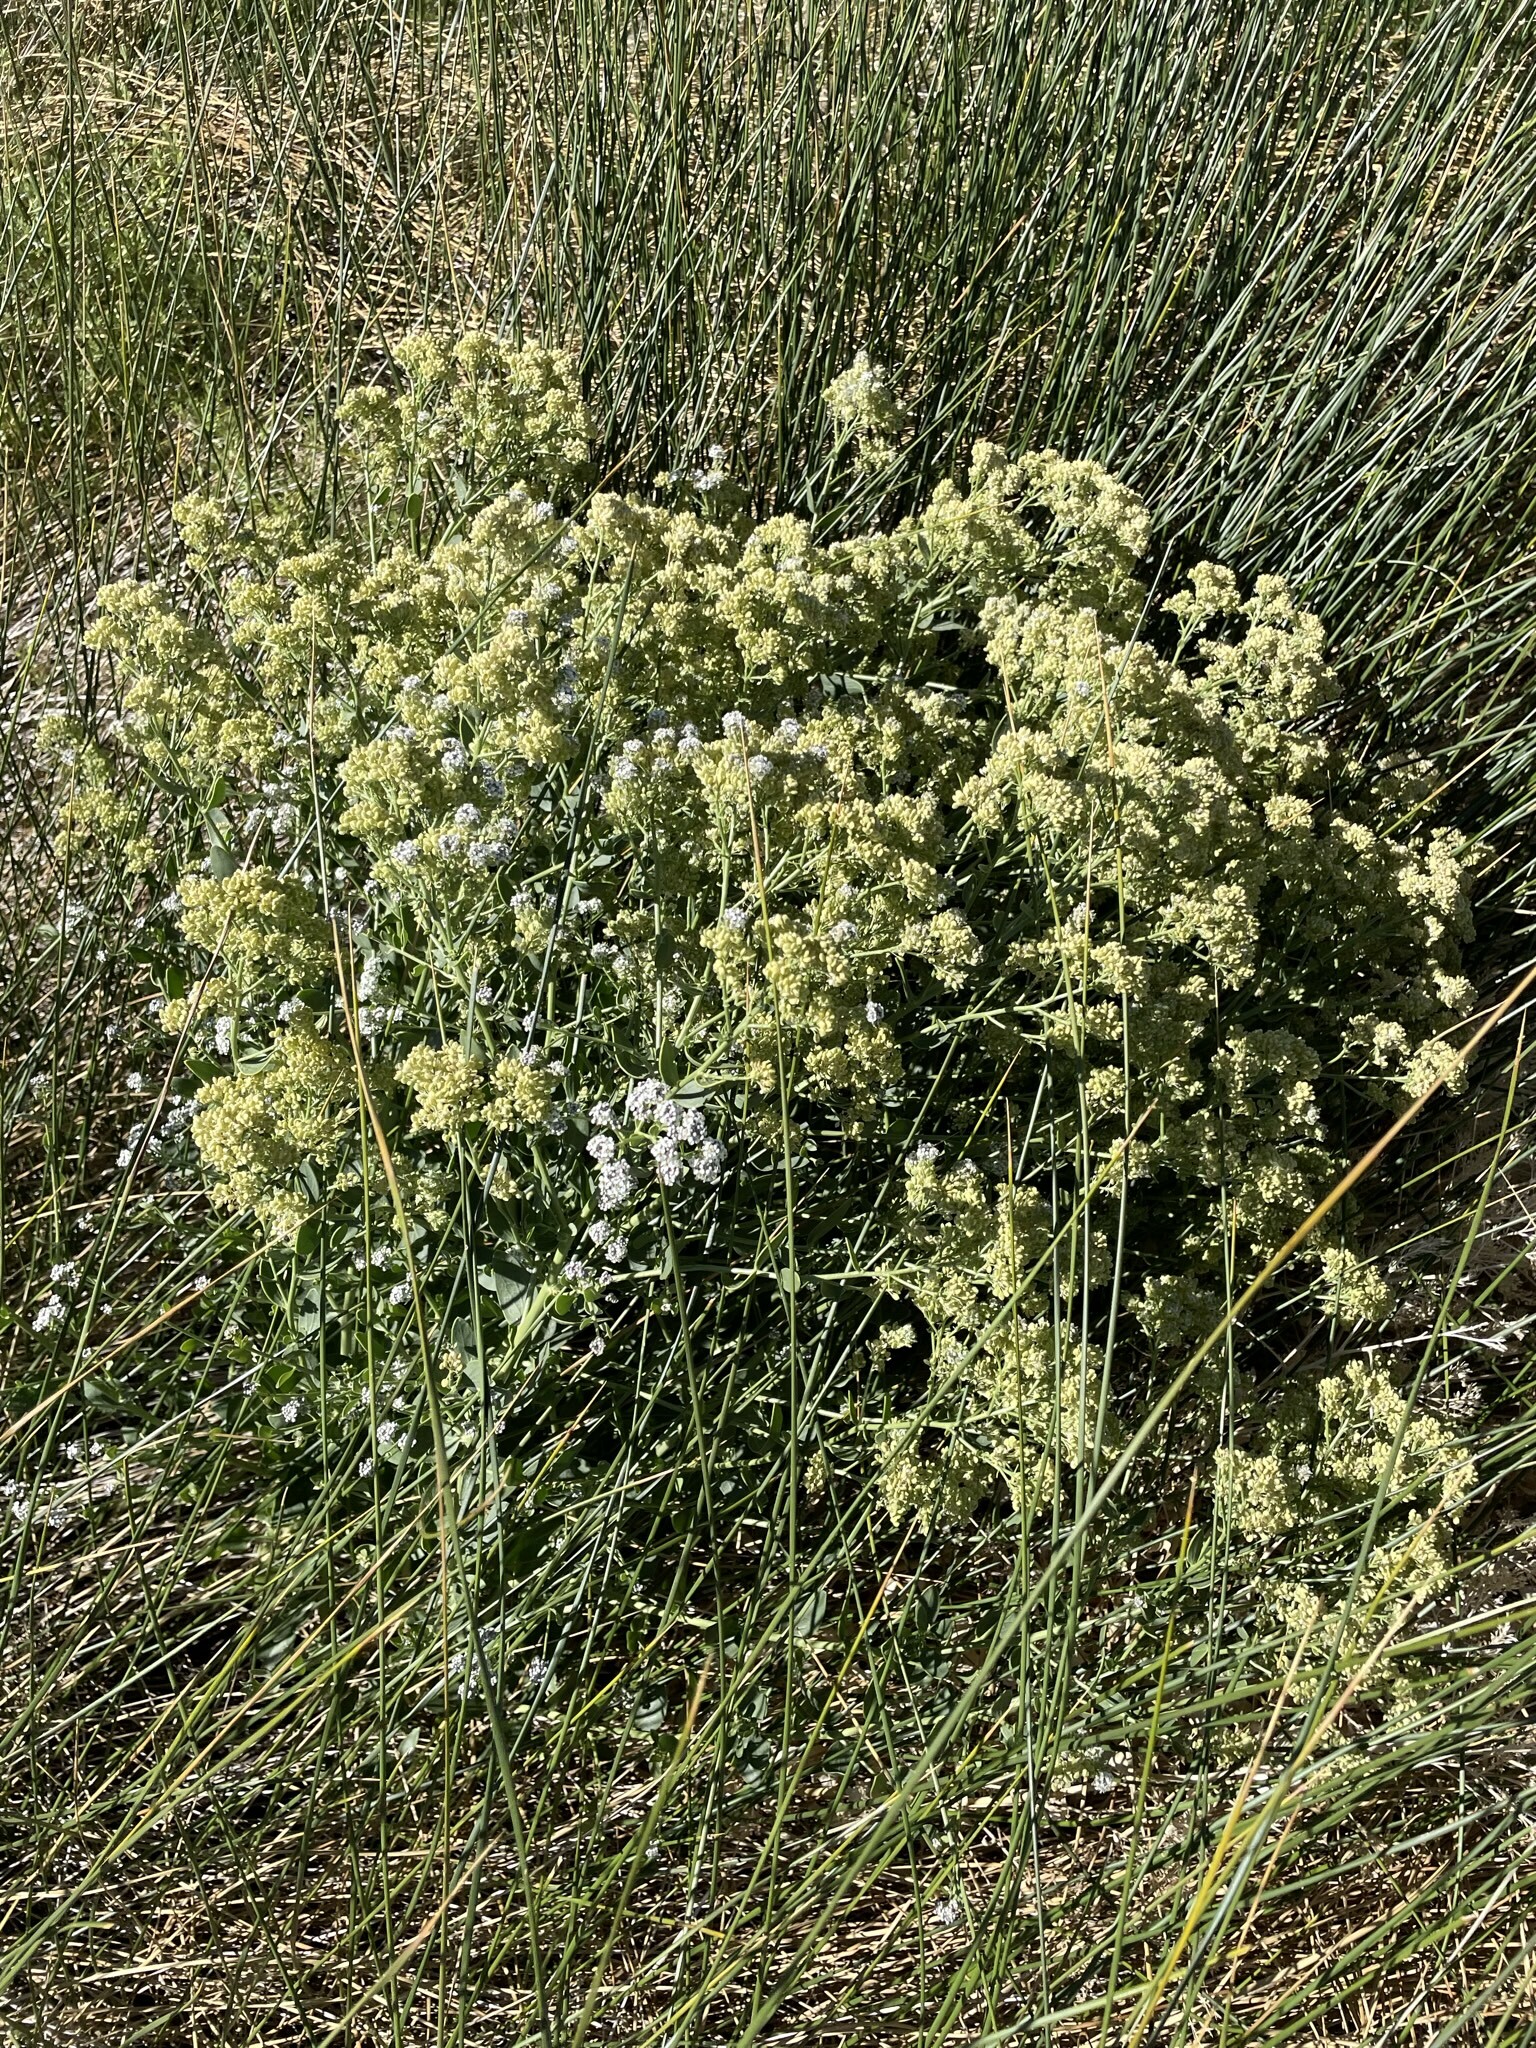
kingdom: Plantae
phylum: Tracheophyta
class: Magnoliopsida
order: Brassicales
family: Brassicaceae
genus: Lepidium
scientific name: Lepidium latifolium
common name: Dittander
